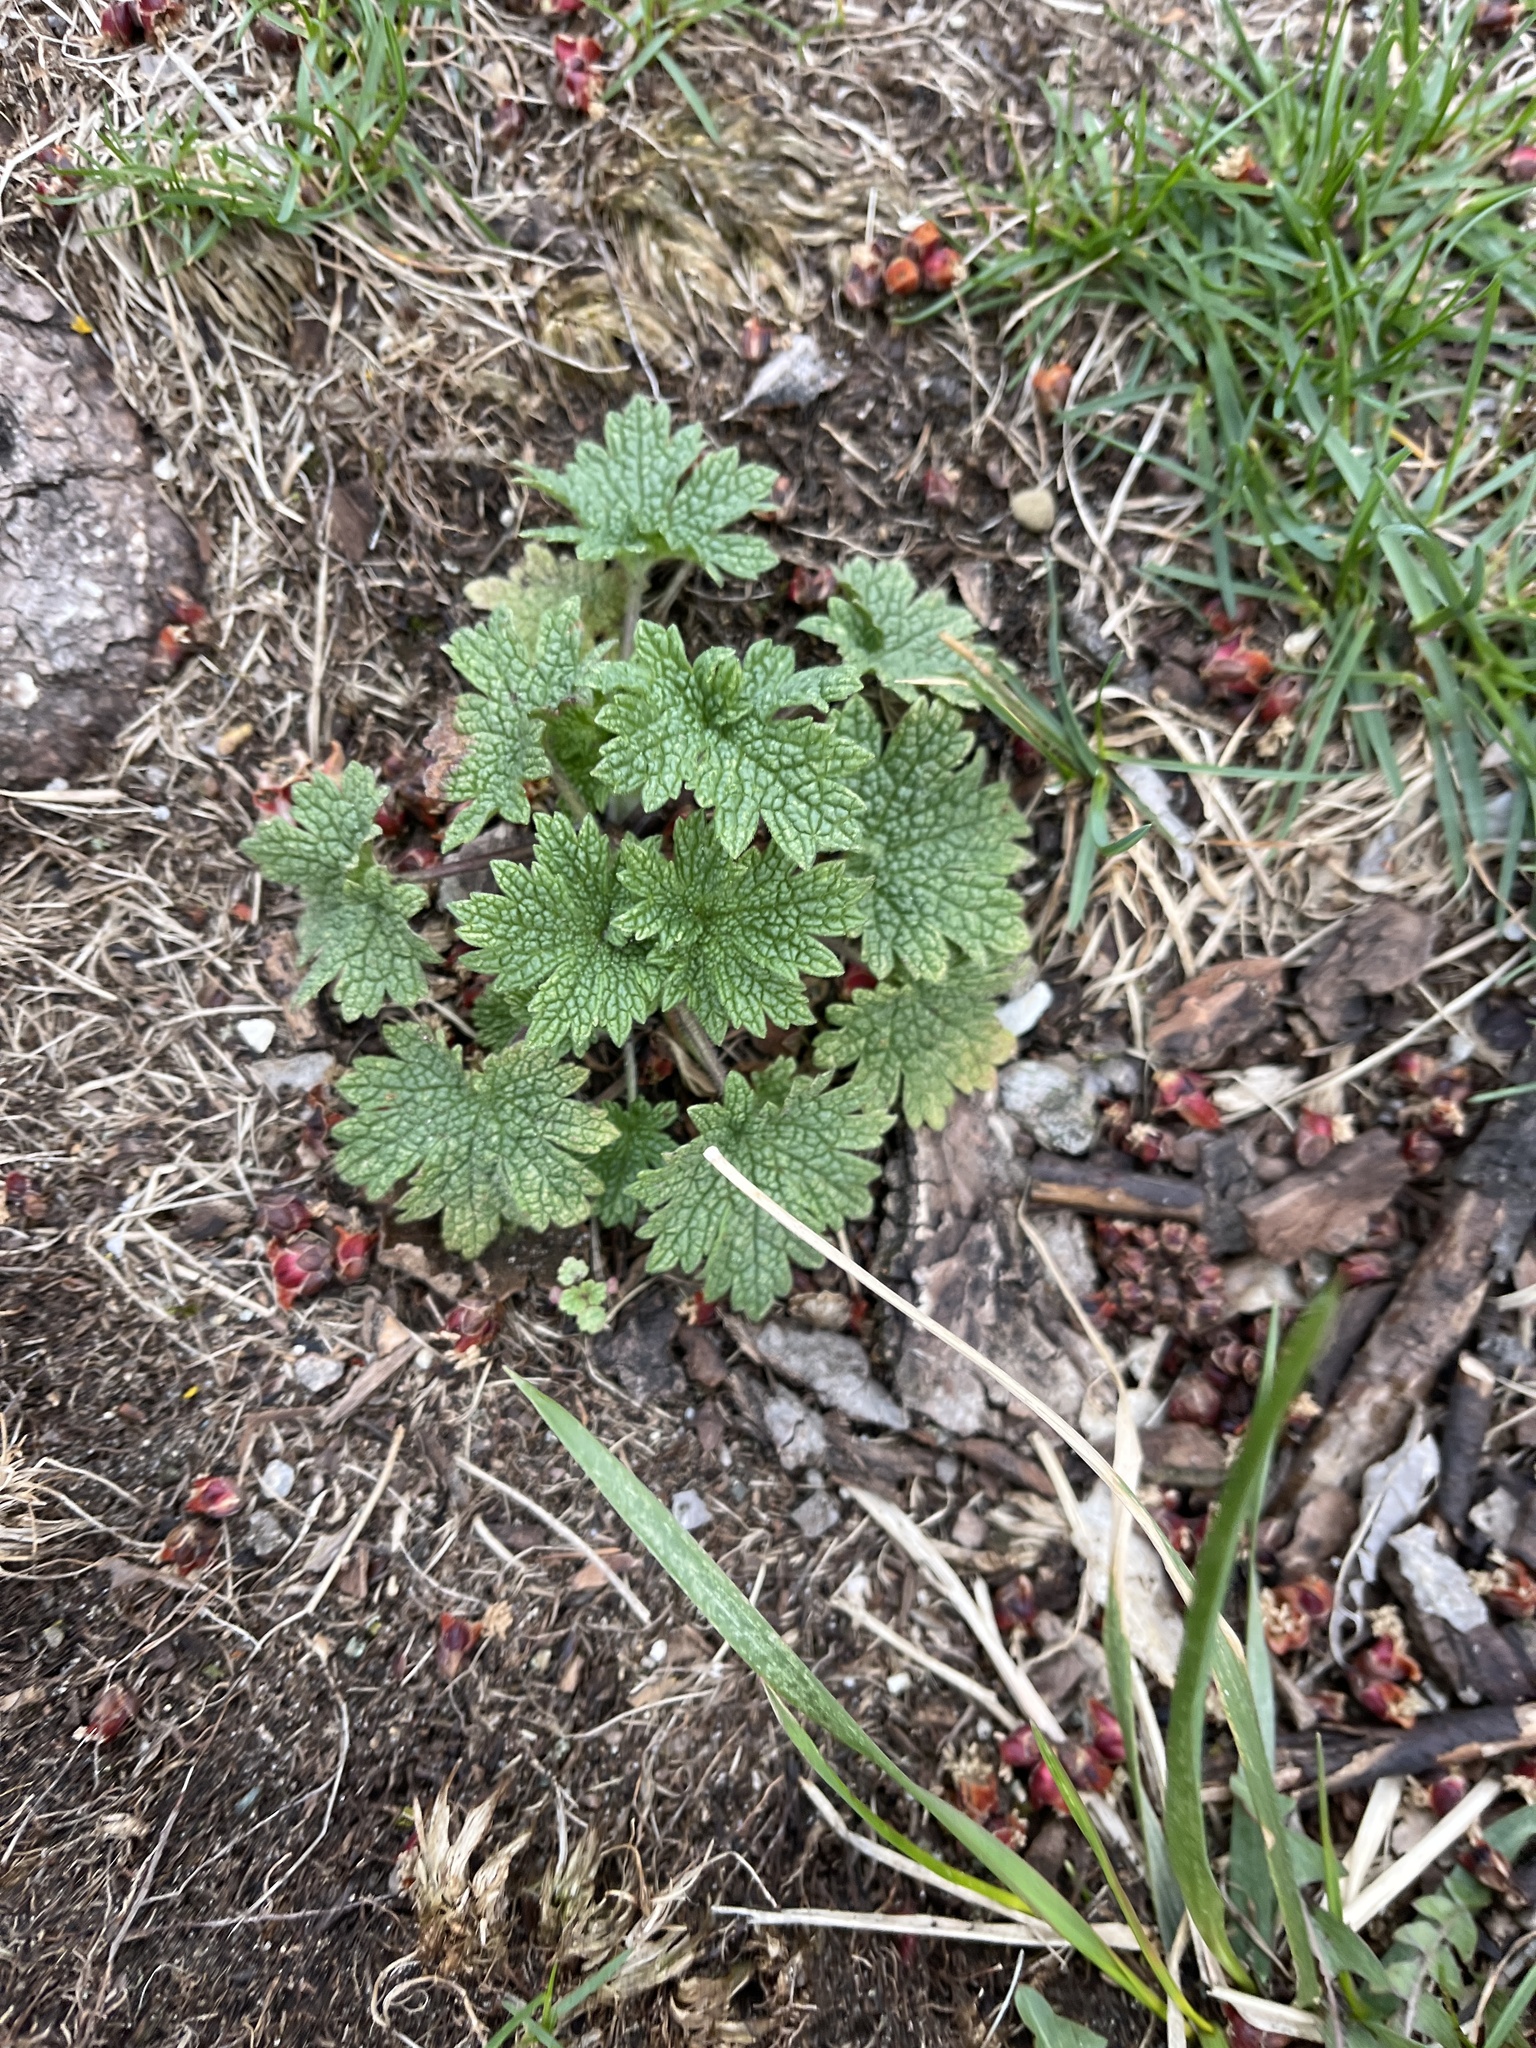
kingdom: Plantae
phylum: Tracheophyta
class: Magnoliopsida
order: Lamiales
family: Lamiaceae
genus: Leonurus
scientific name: Leonurus cardiaca
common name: Motherwort
